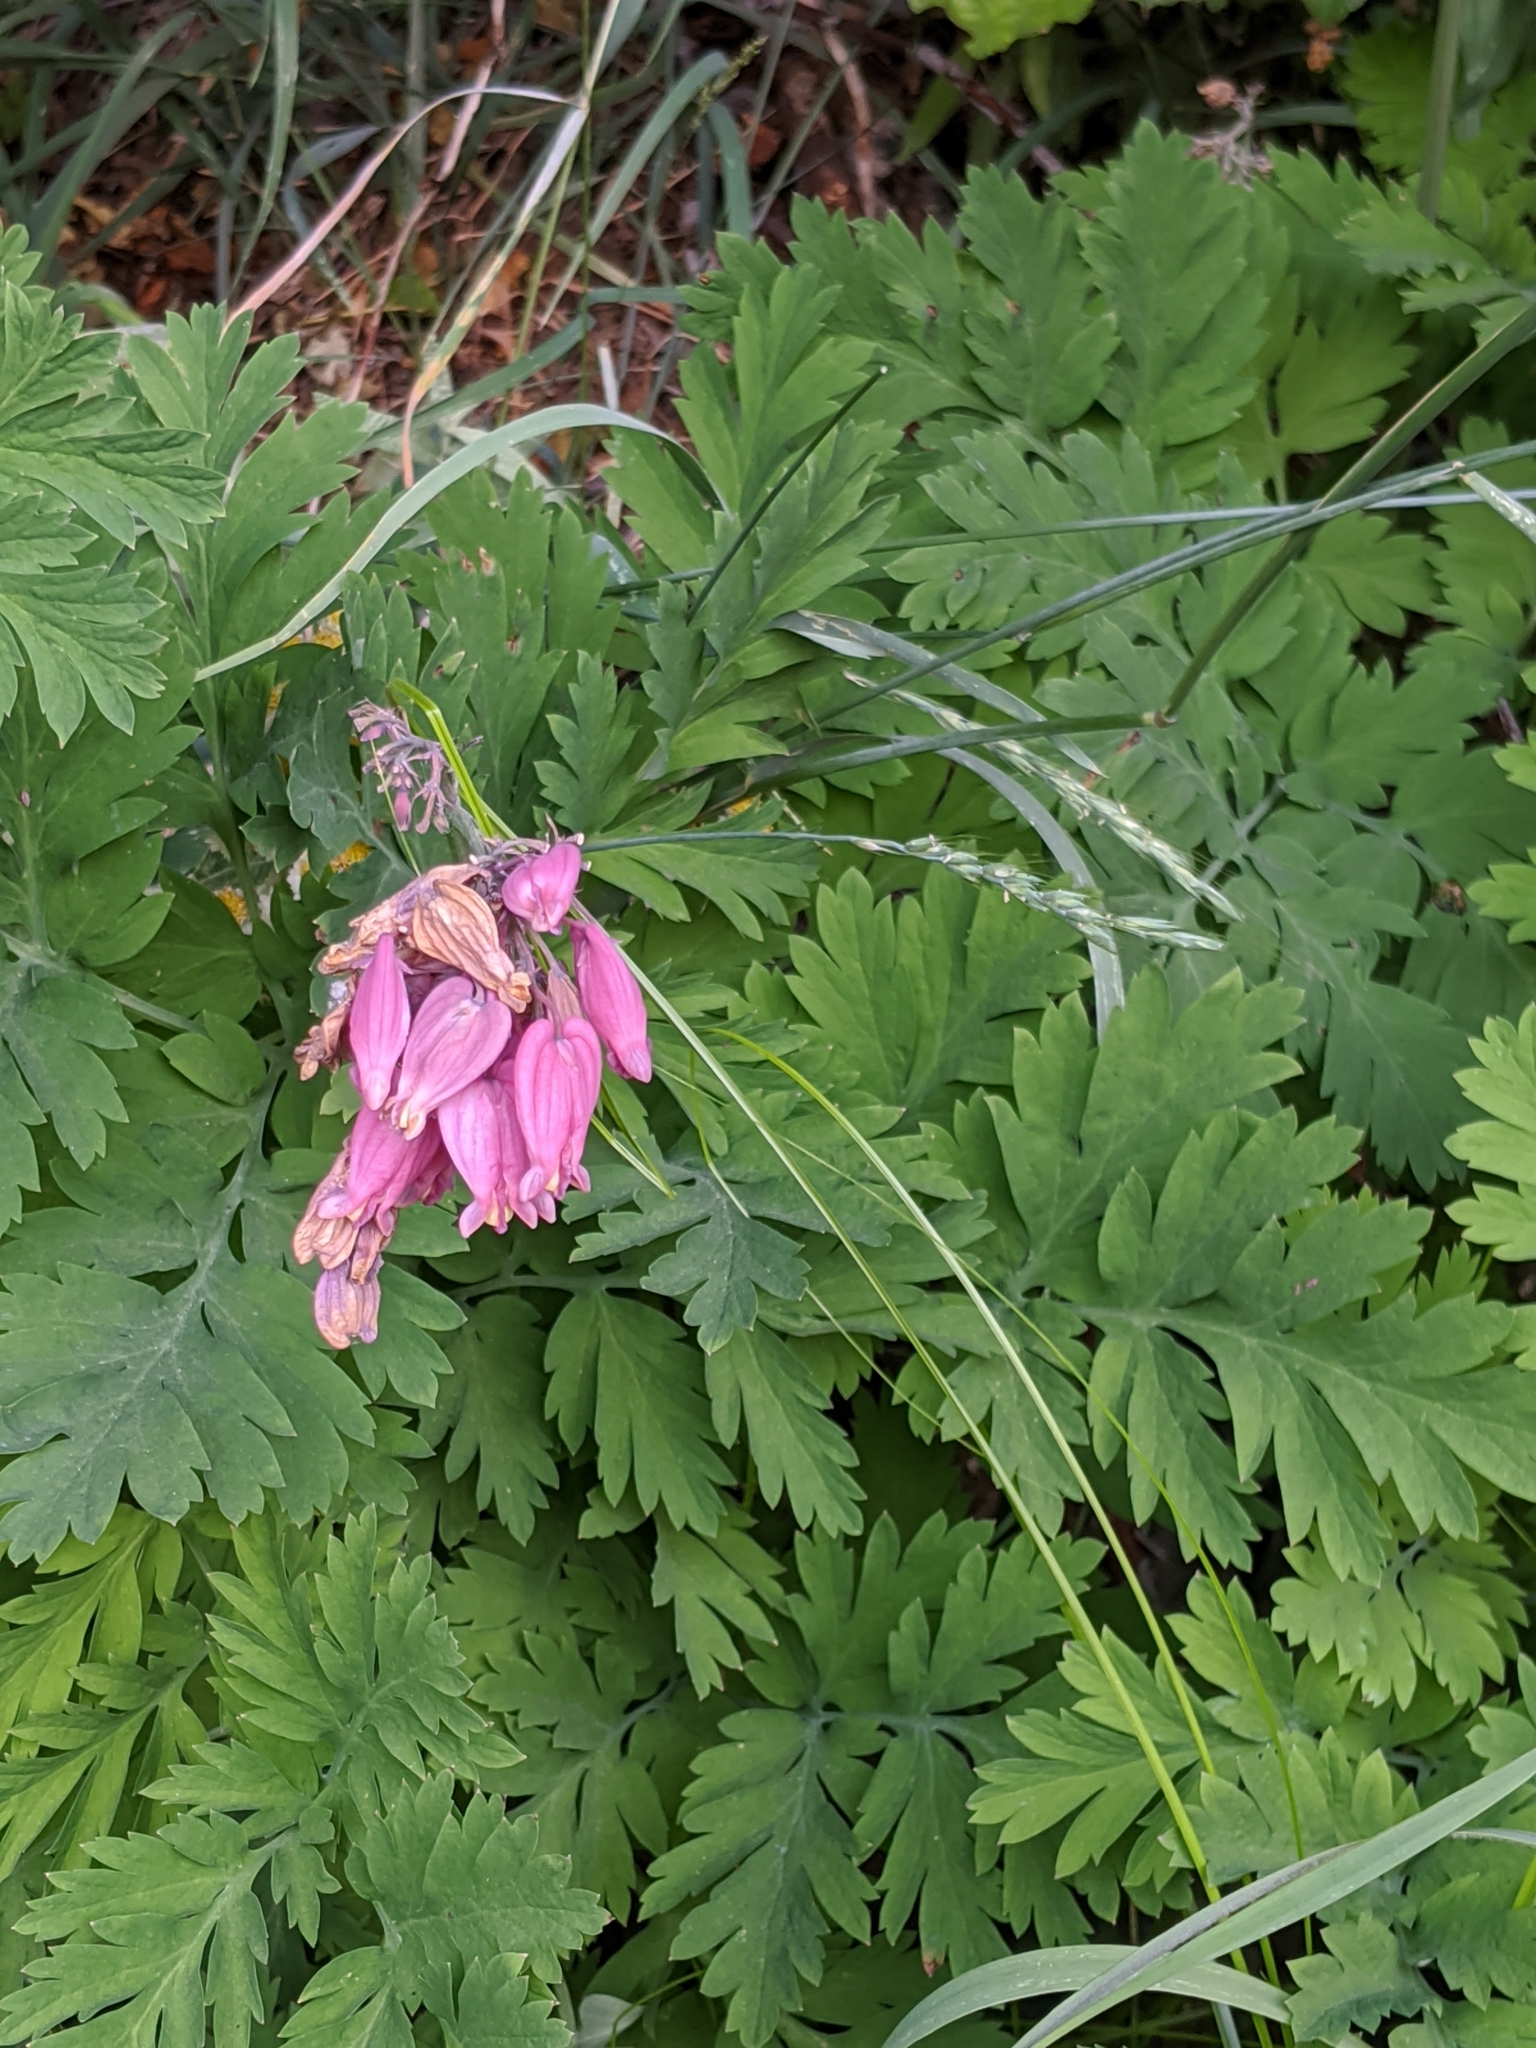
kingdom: Plantae
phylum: Tracheophyta
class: Magnoliopsida
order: Ranunculales
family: Papaveraceae
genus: Dicentra
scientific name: Dicentra formosa
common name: Bleeding-heart
